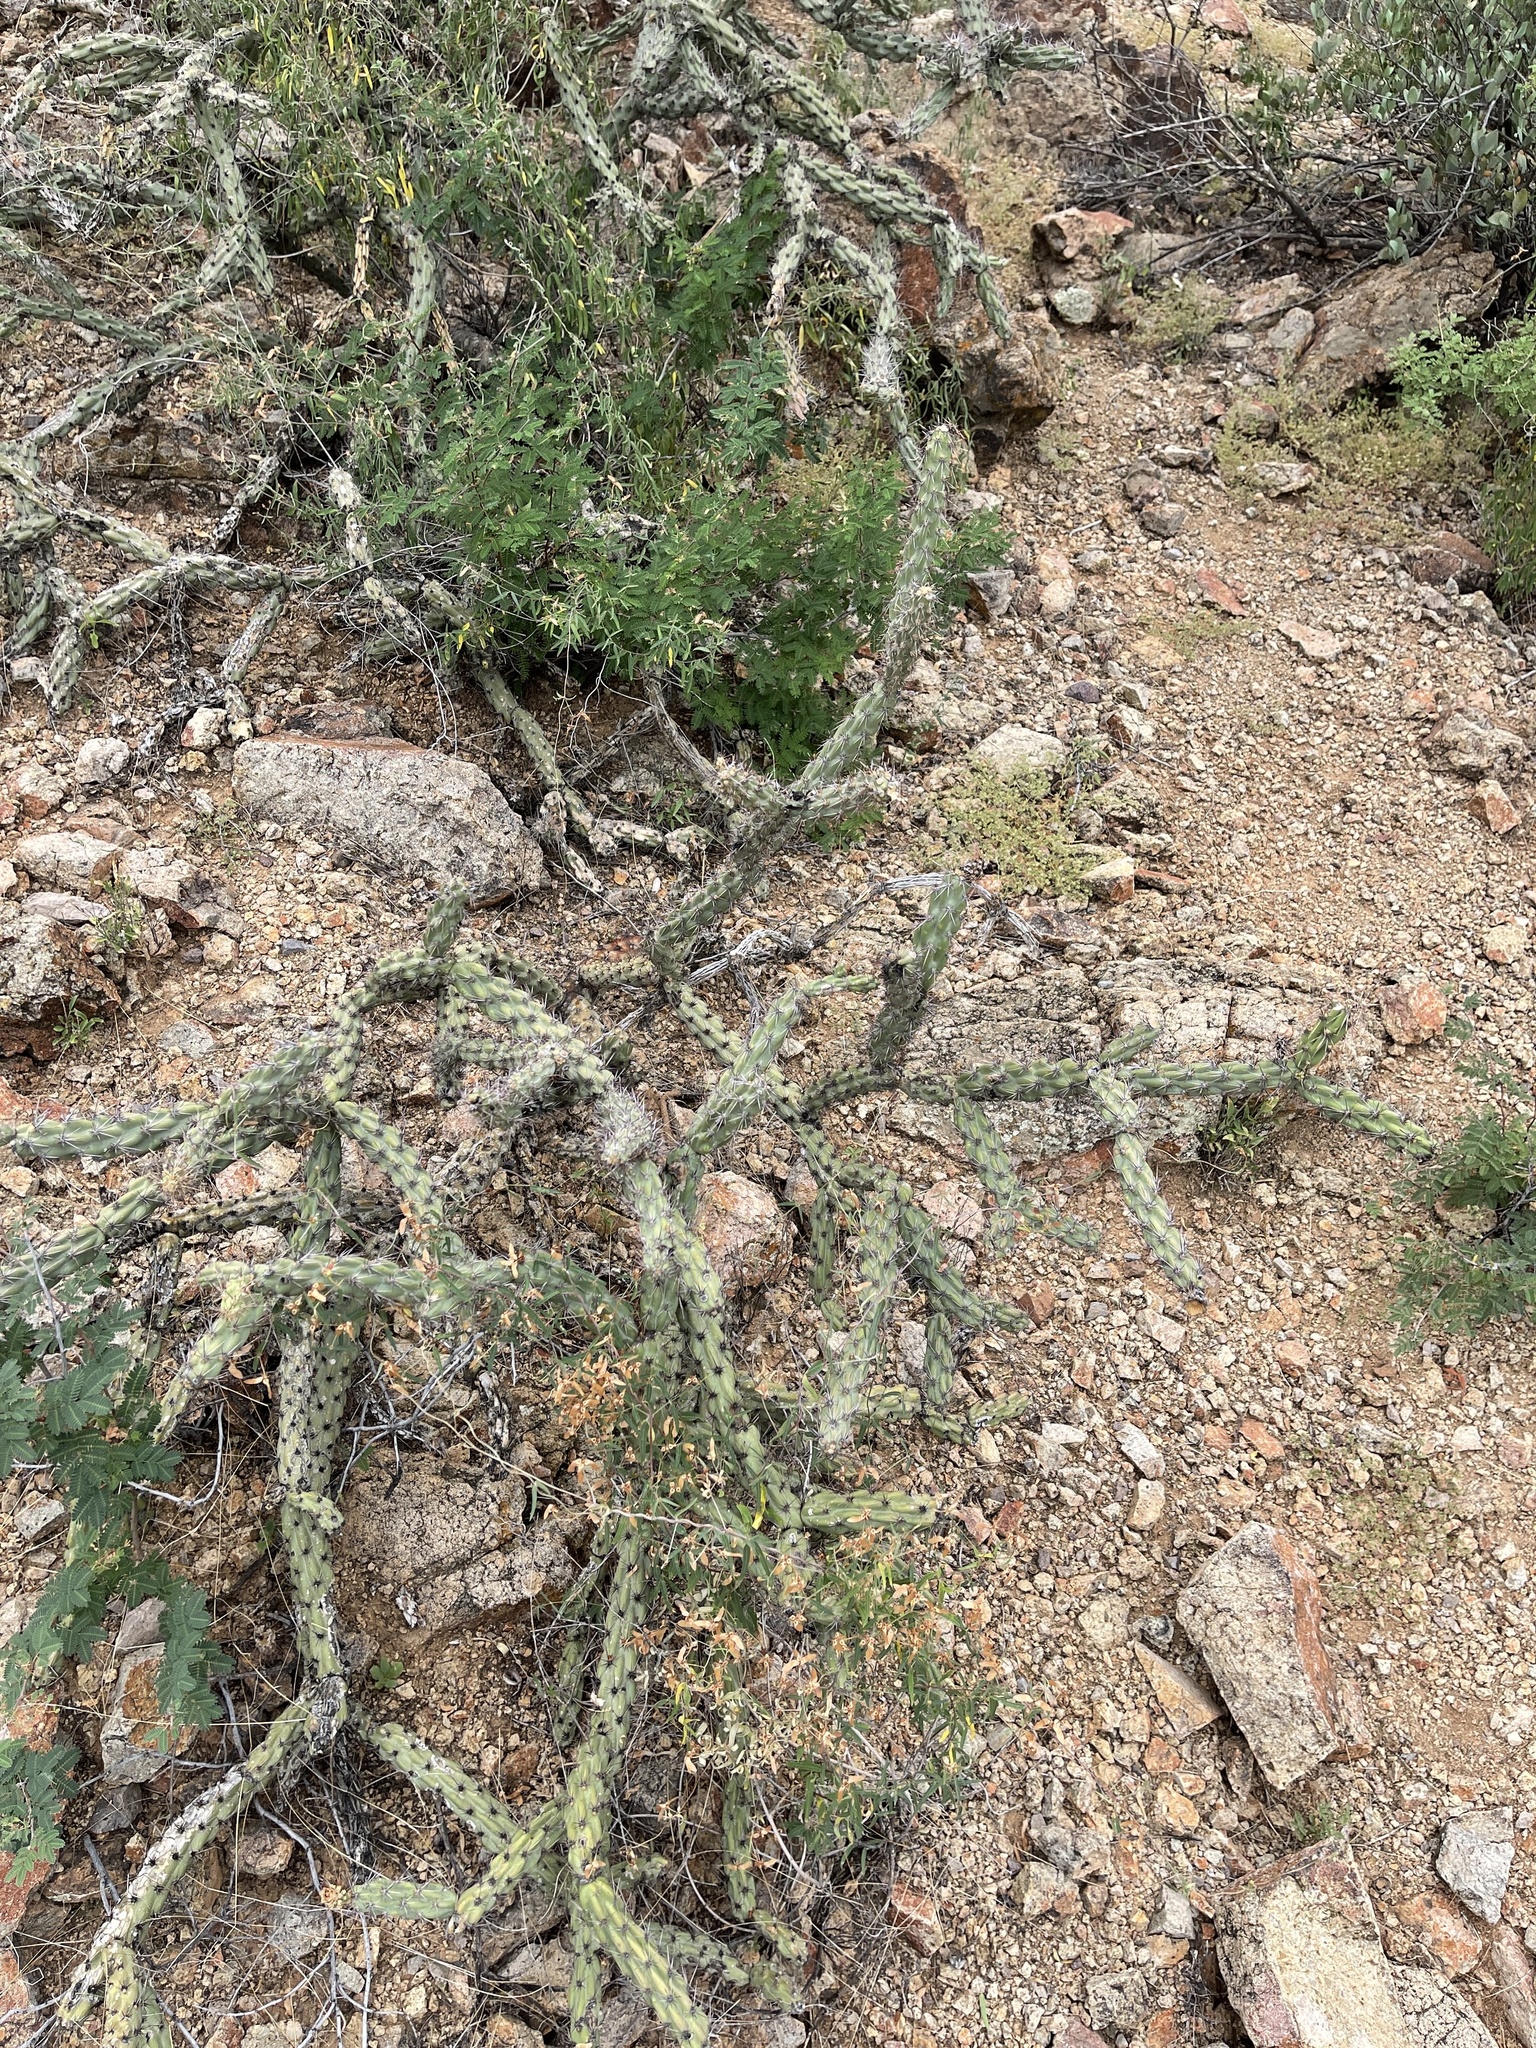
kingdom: Plantae
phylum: Tracheophyta
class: Magnoliopsida
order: Caryophyllales
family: Cactaceae
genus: Cylindropuntia
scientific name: Cylindropuntia thurberi
